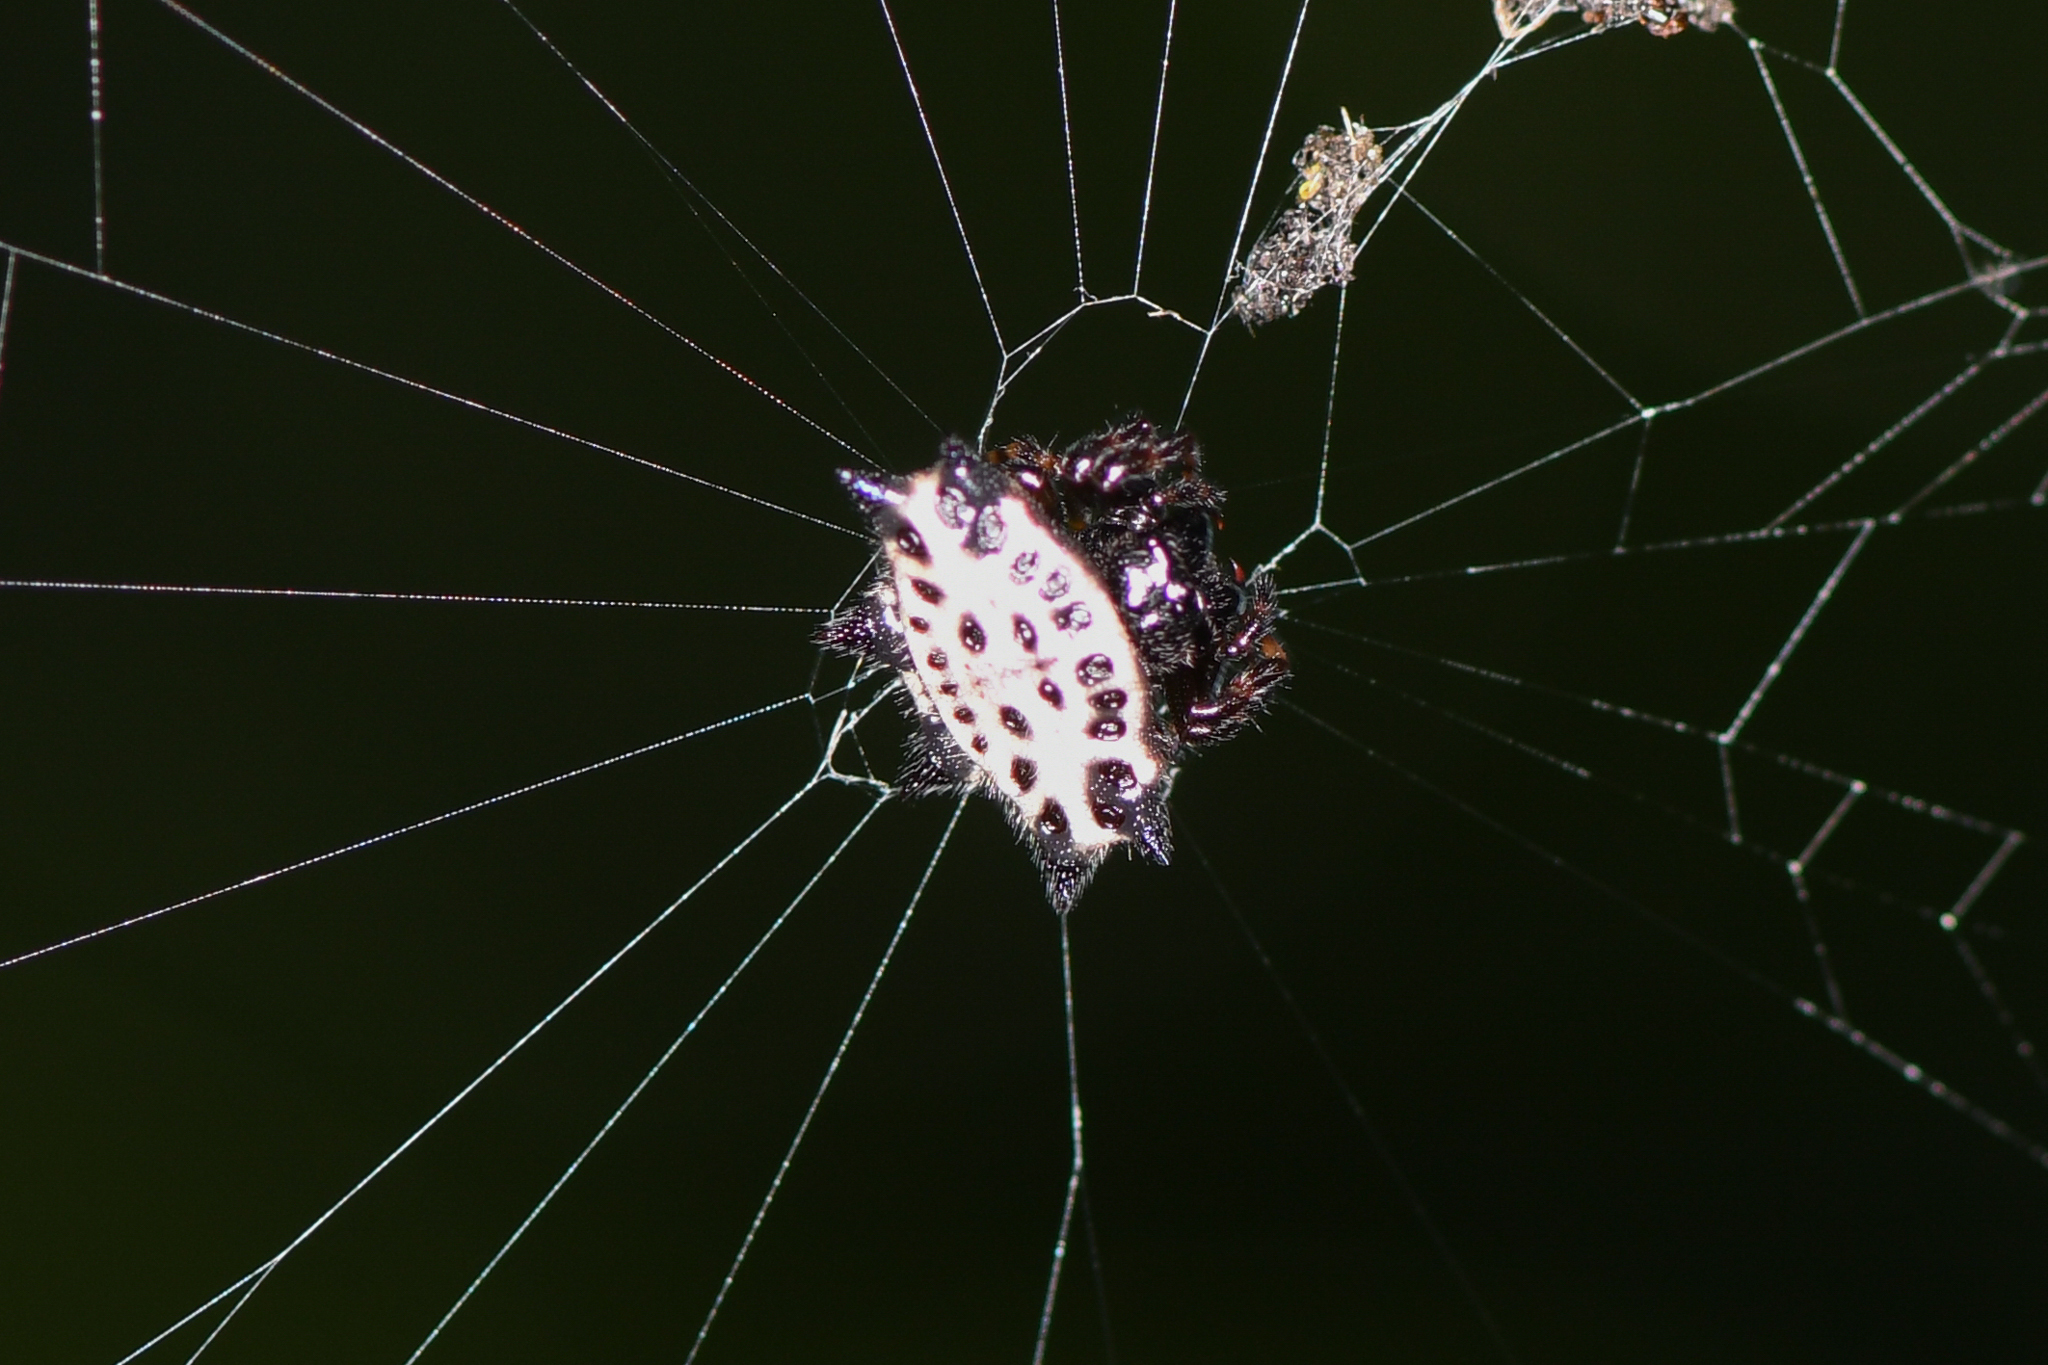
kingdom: Animalia
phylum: Arthropoda
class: Arachnida
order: Araneae
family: Araneidae
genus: Gasteracantha
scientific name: Gasteracantha cancriformis
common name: Orb weavers
